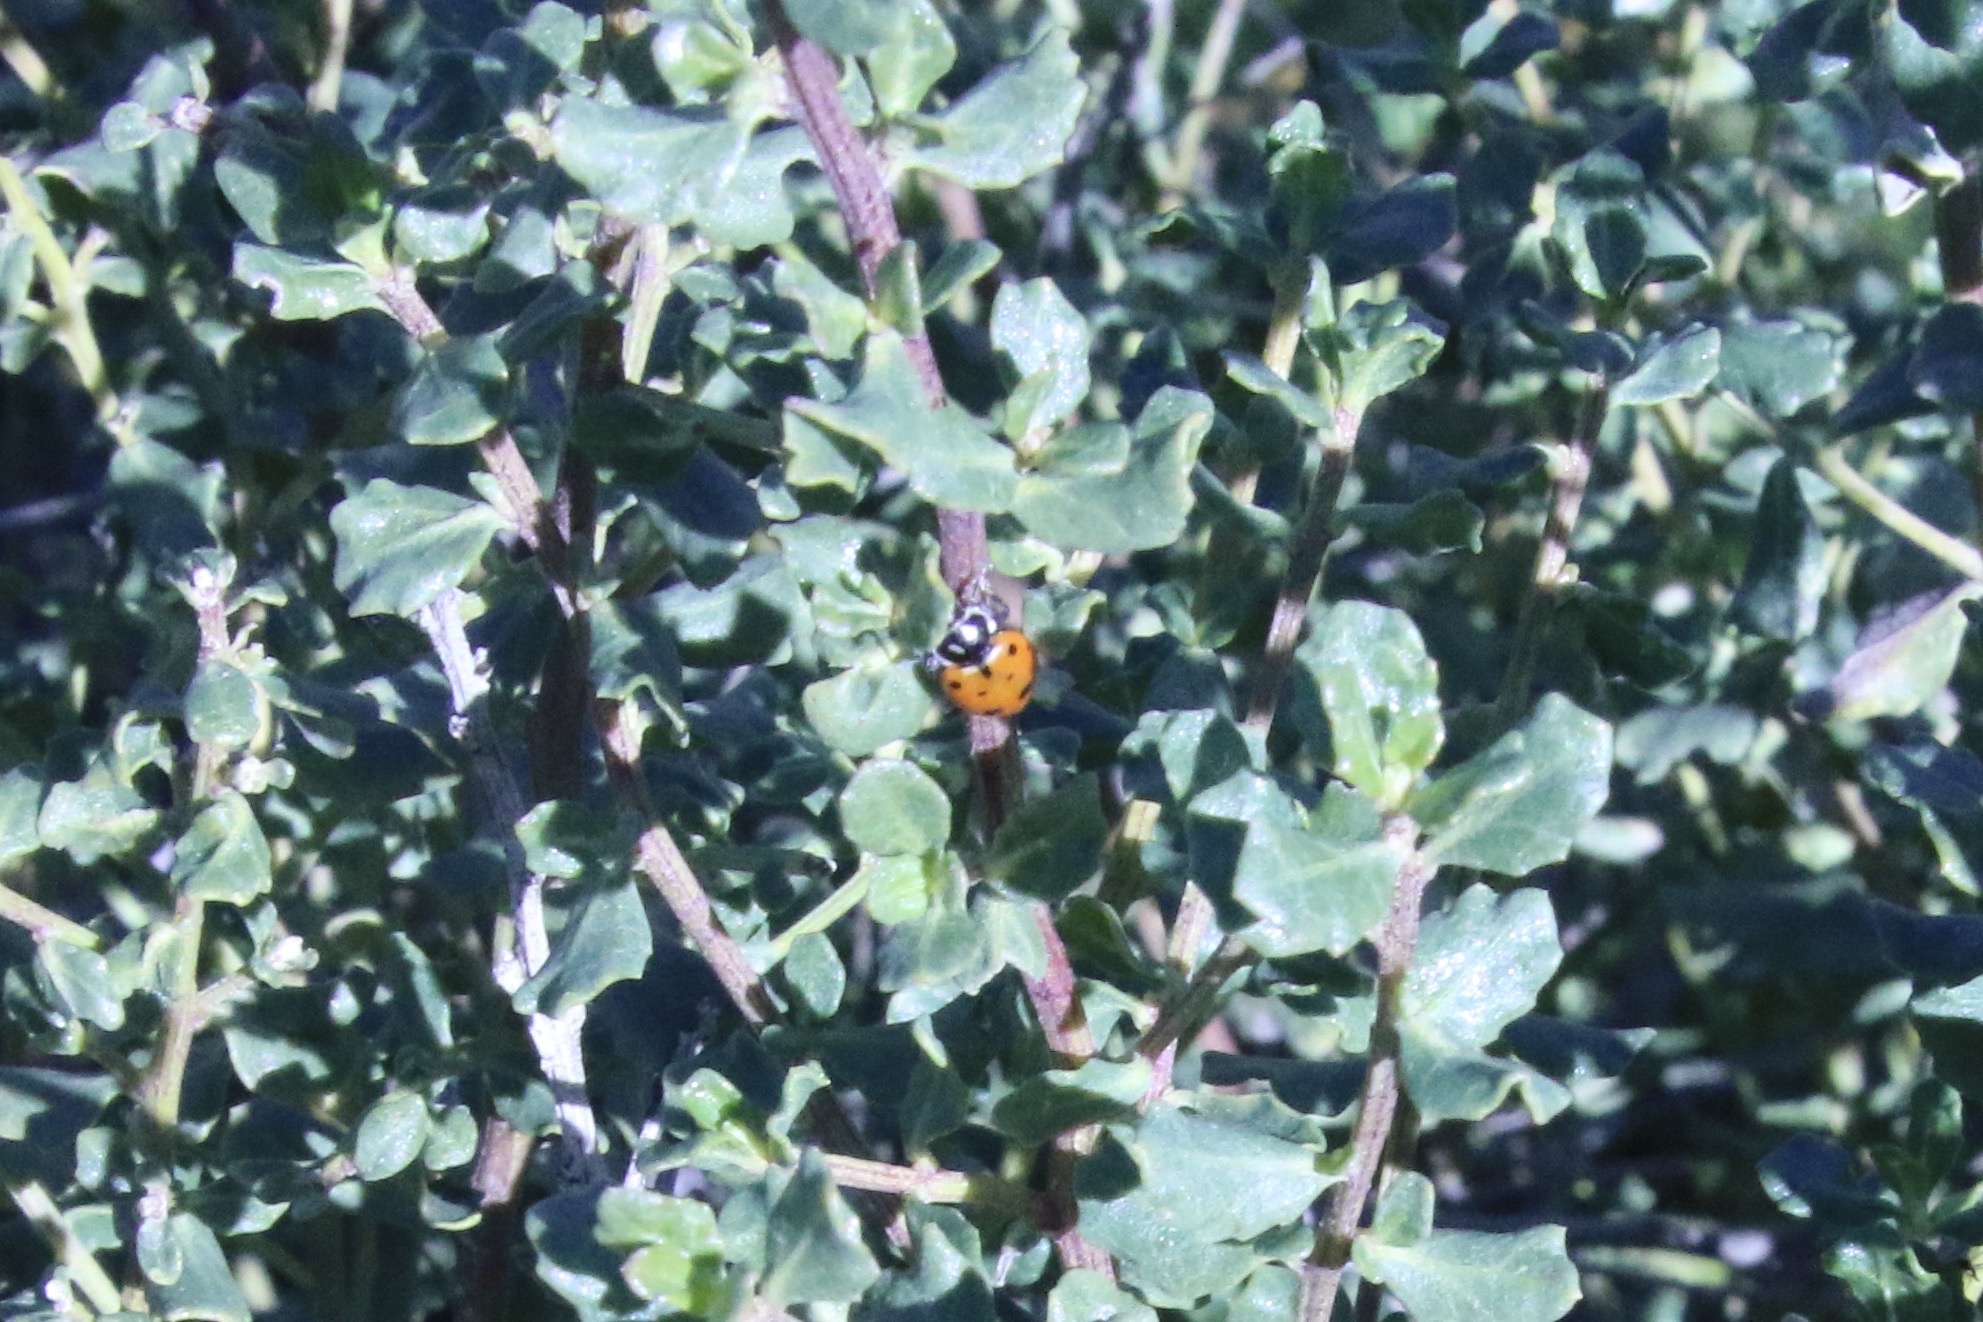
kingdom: Animalia
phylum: Arthropoda
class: Insecta
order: Coleoptera
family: Coccinellidae
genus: Hippodamia
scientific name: Hippodamia convergens
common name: Convergent lady beetle
